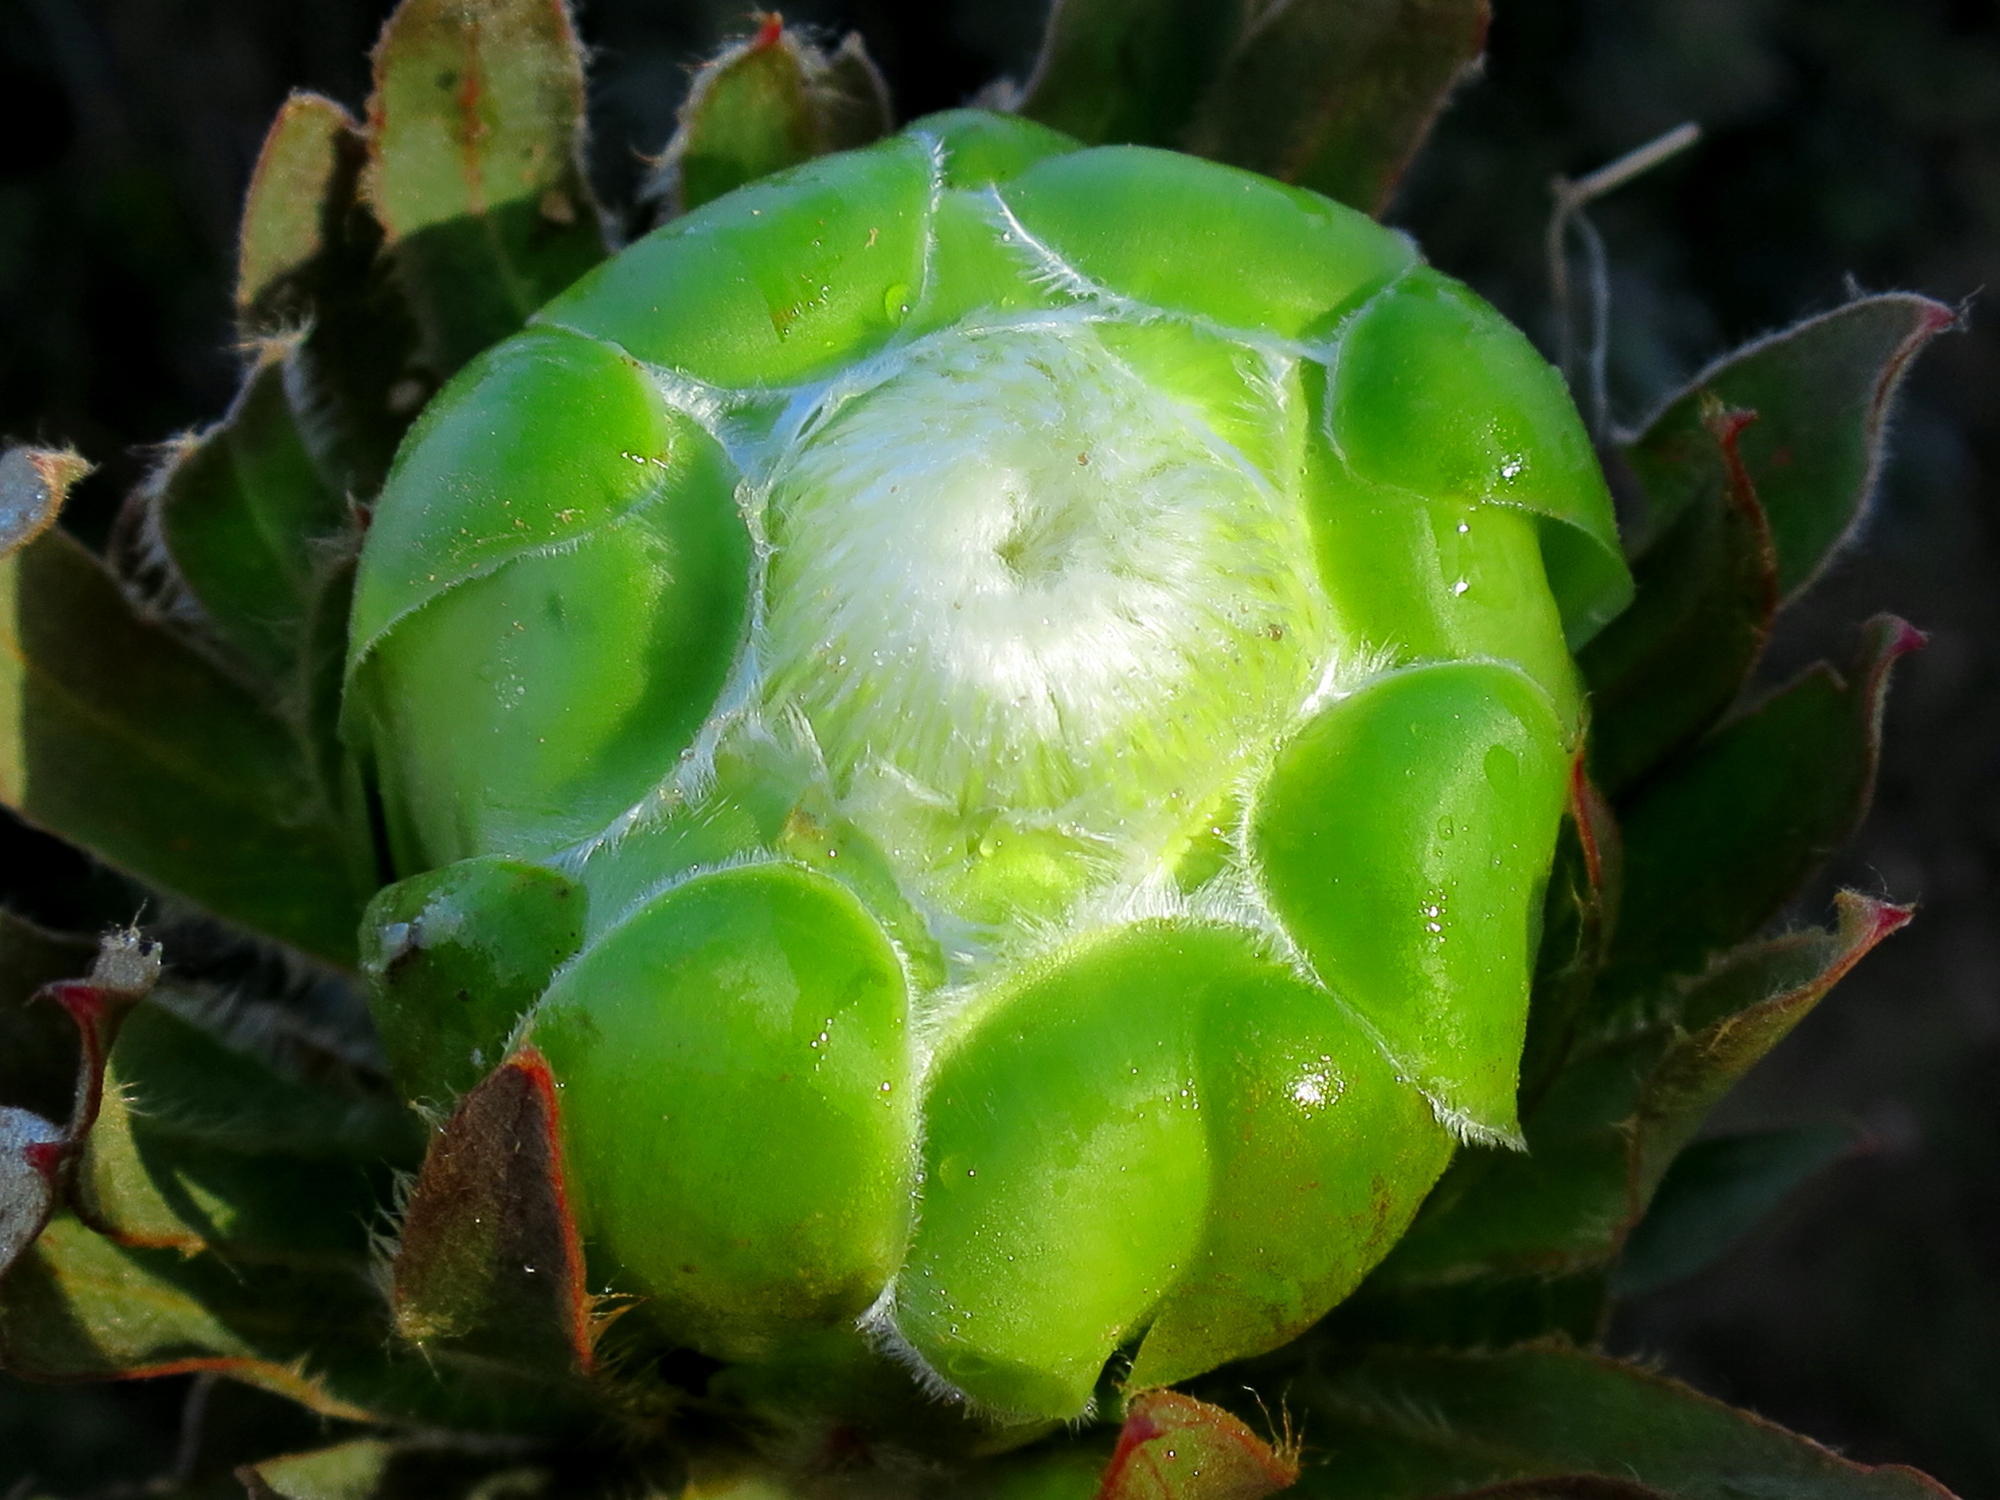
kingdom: Plantae
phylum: Tracheophyta
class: Magnoliopsida
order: Proteales
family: Proteaceae
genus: Protea
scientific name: Protea coronata
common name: Green sugarbush
